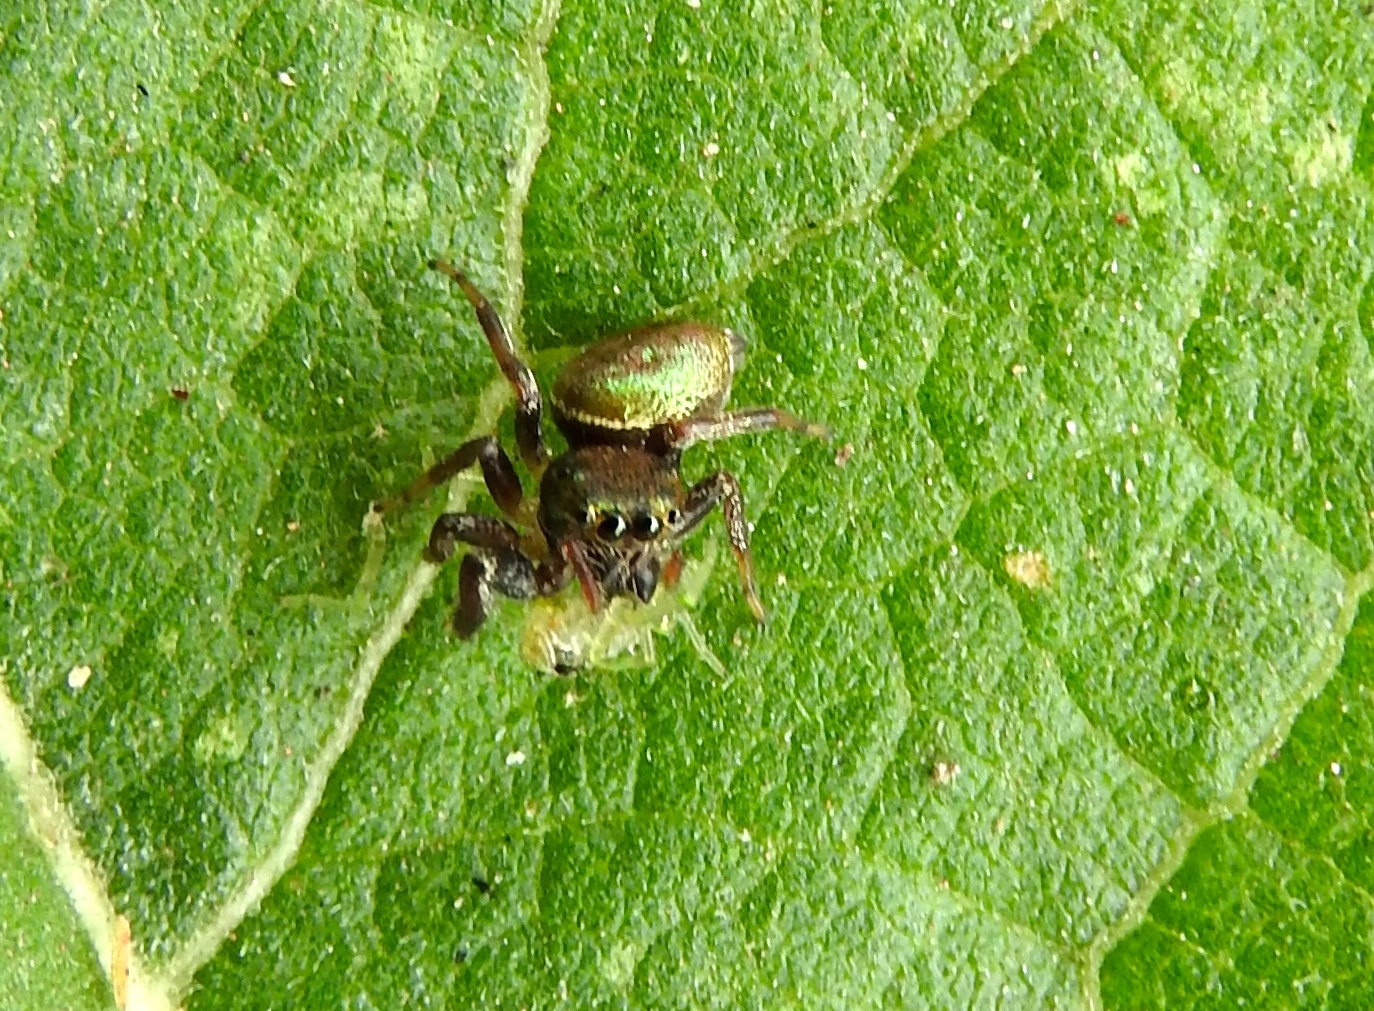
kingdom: Animalia
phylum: Arthropoda
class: Arachnida
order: Araneae
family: Salticidae
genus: Messua
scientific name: Messua
